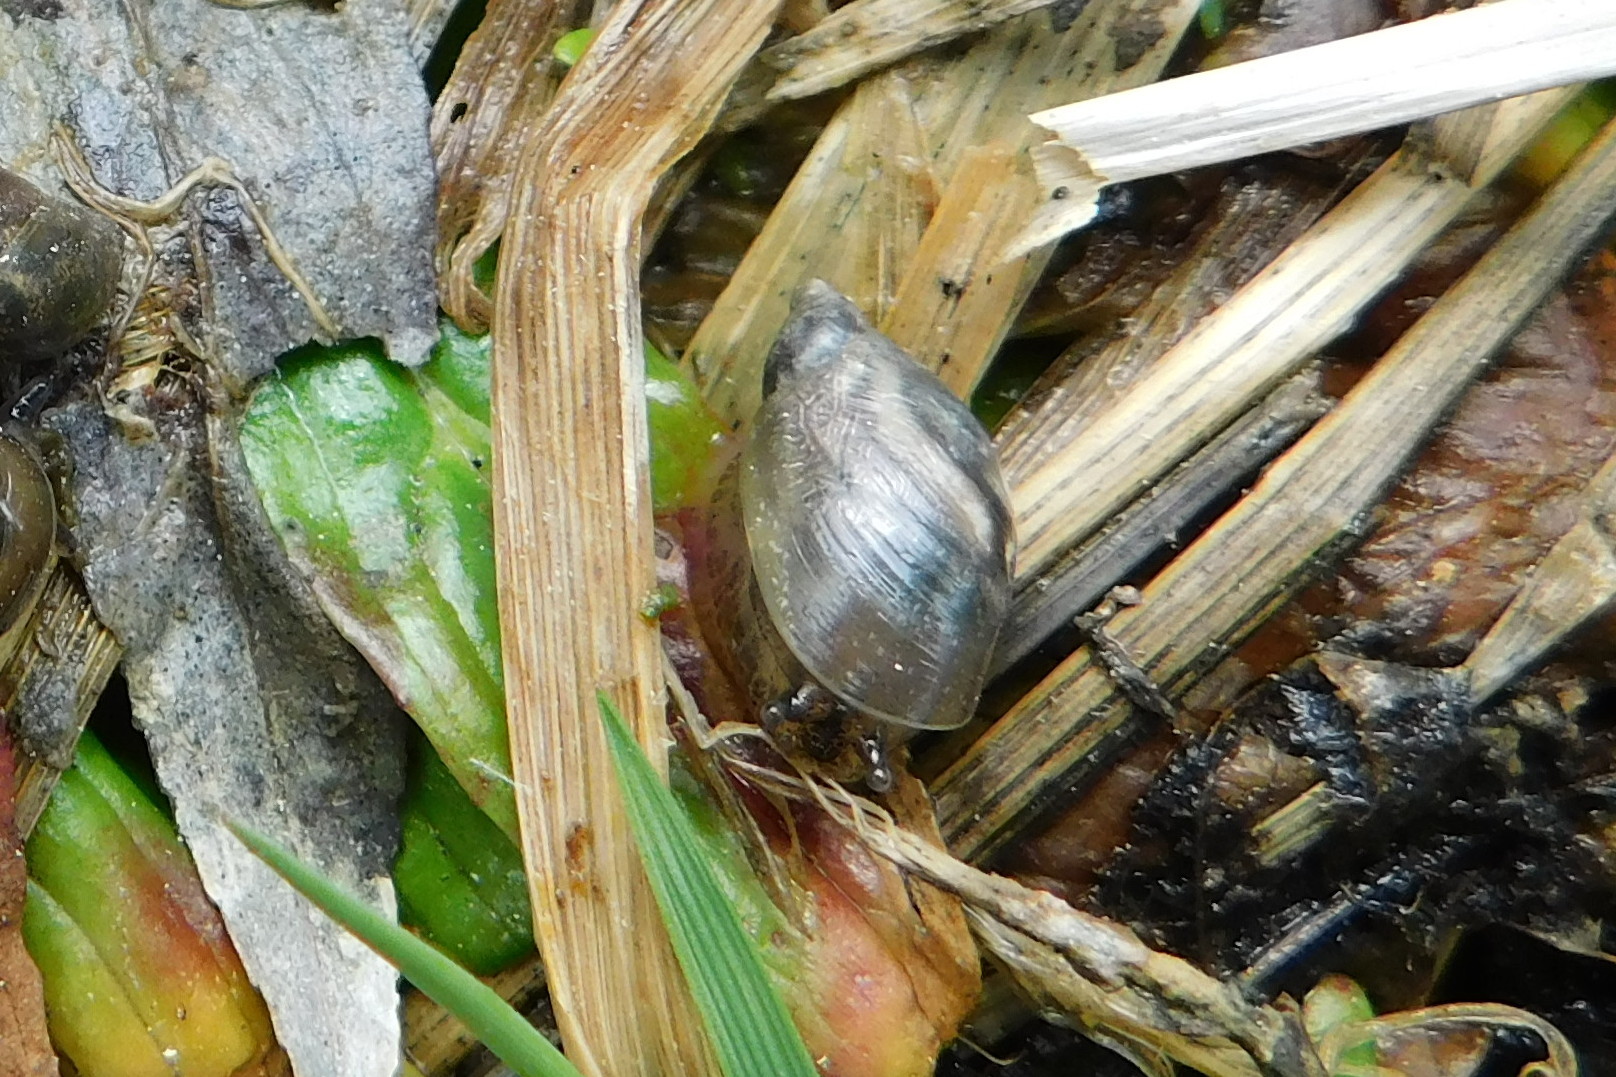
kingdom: Animalia
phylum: Mollusca
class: Gastropoda
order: Stylommatophora
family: Succineidae
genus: Succinea
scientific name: Succinea putris
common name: European ambersnail
